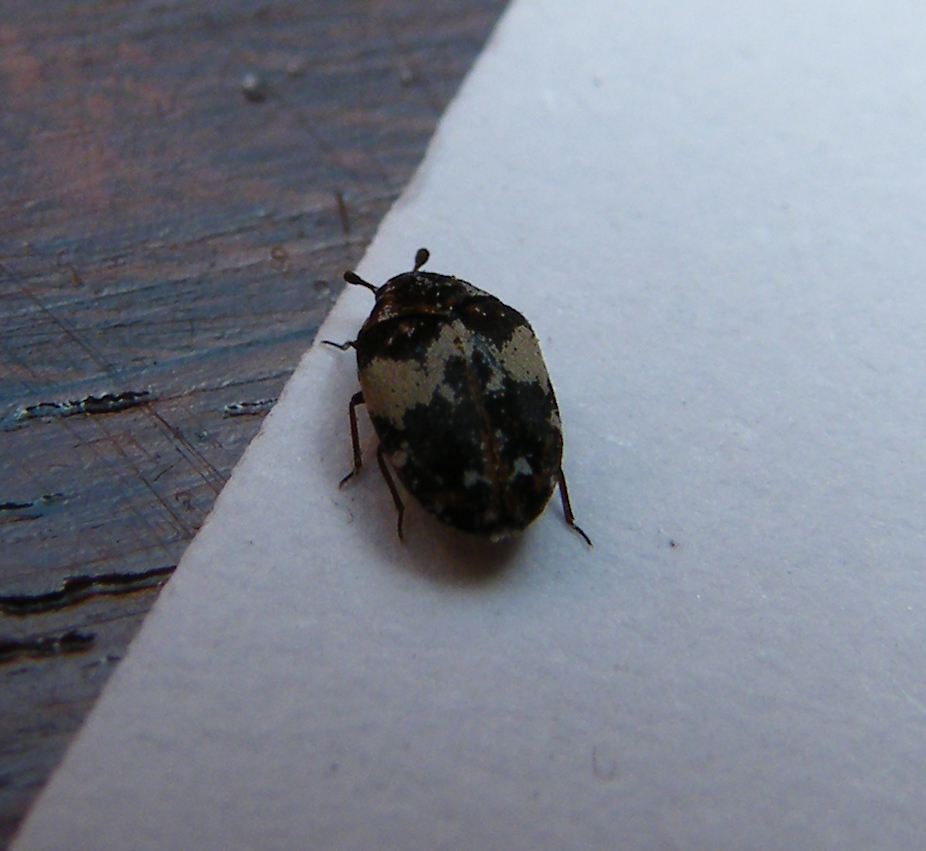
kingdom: Animalia
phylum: Arthropoda
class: Insecta
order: Coleoptera
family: Dermestidae
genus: Anthrenus
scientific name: Anthrenus pimpinellae
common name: Dermestid beetle
